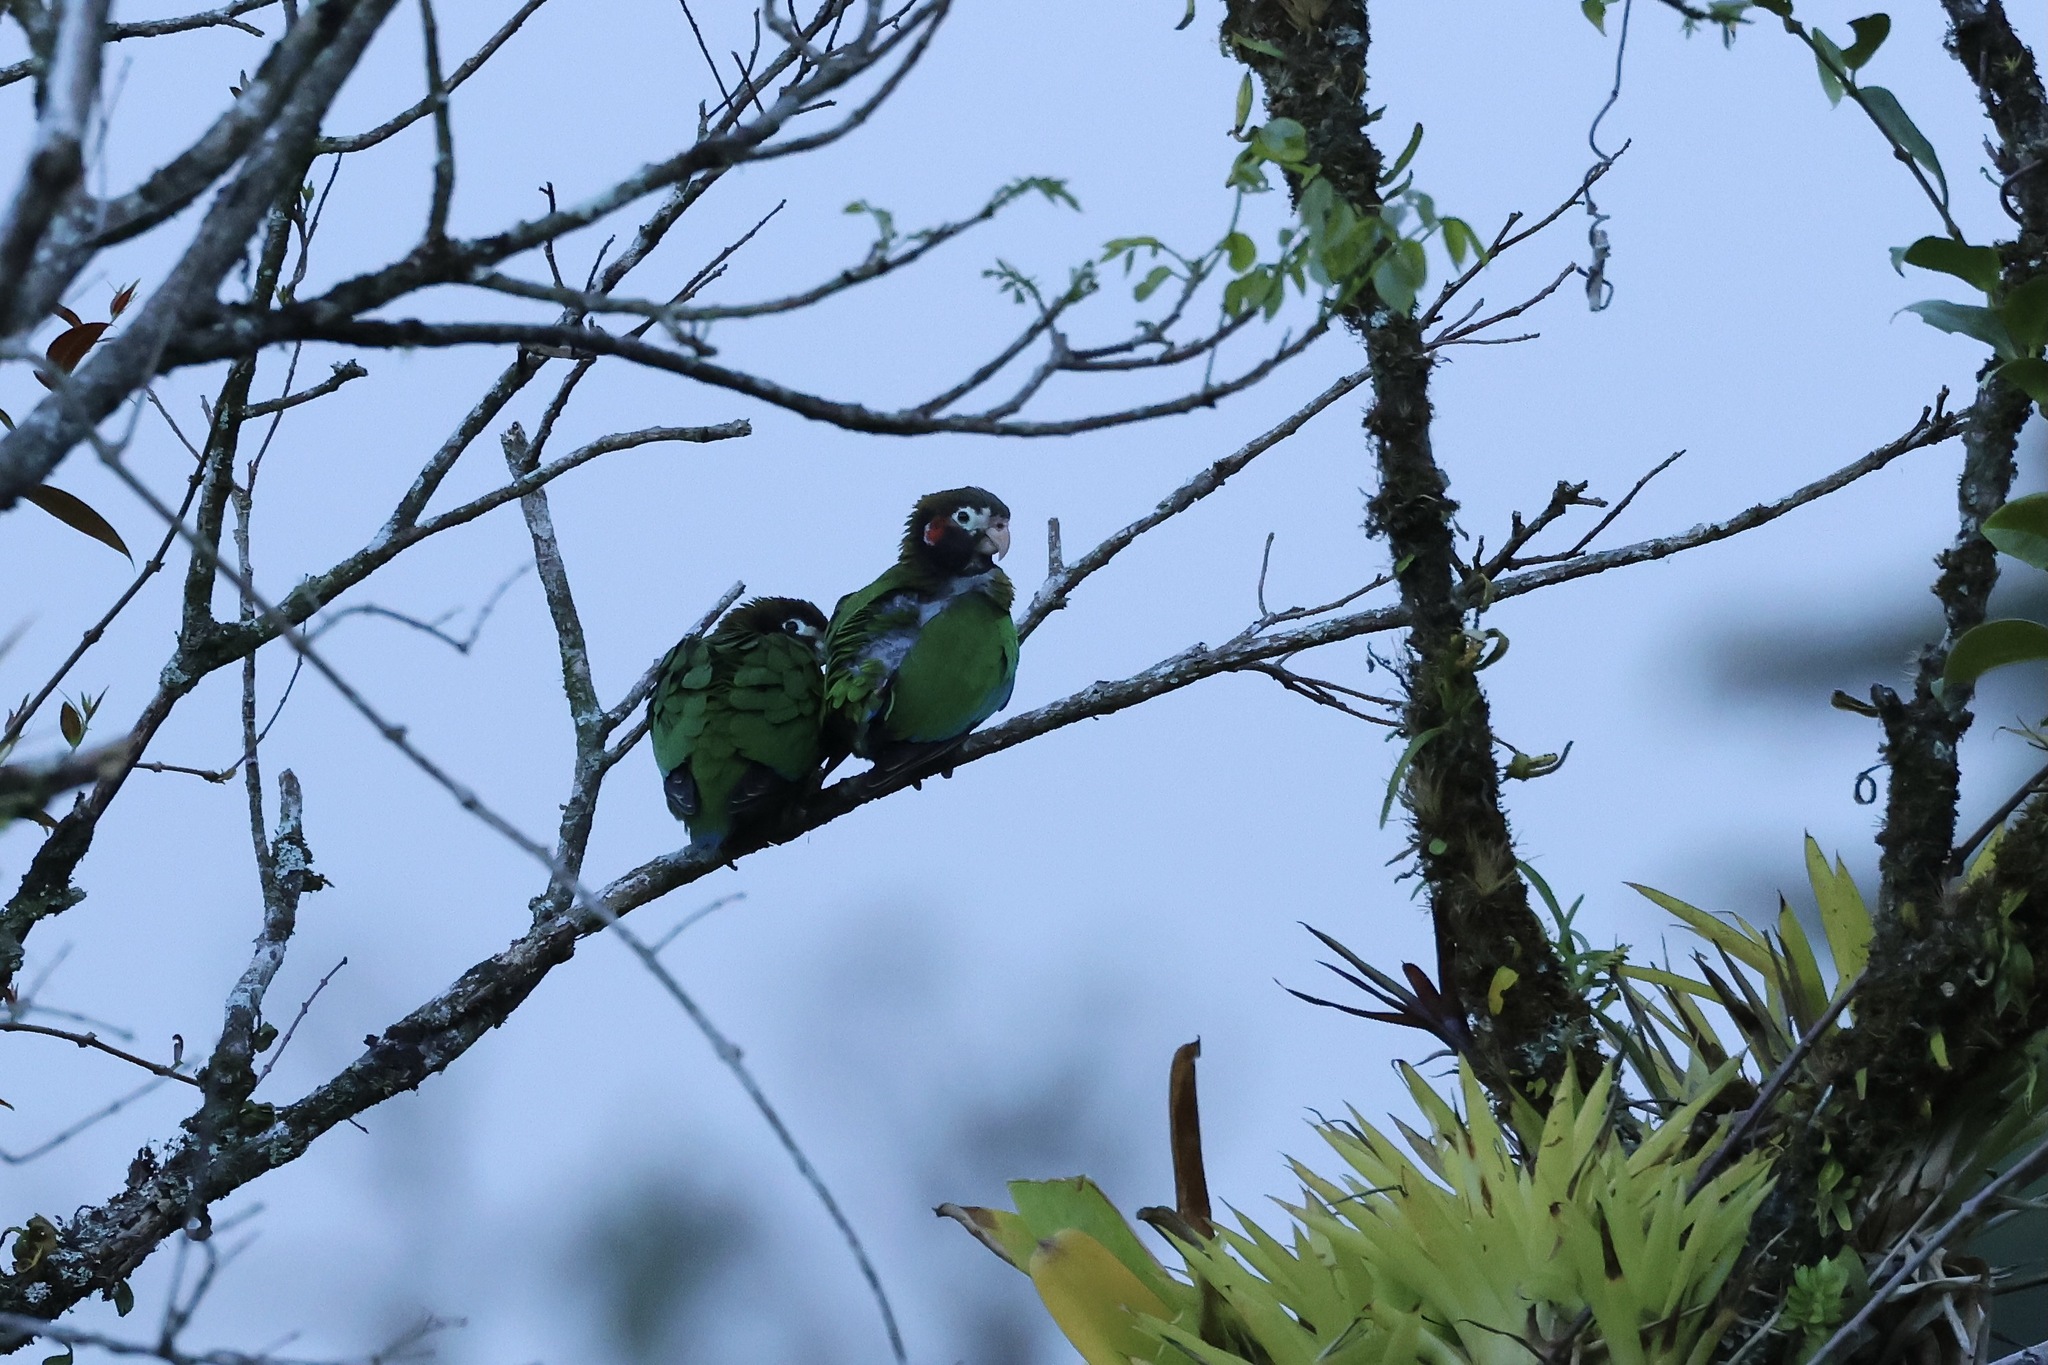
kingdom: Animalia
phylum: Chordata
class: Aves
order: Psittaciformes
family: Psittacidae
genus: Pionopsitta
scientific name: Pionopsitta haematotis
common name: Brown-hooded parrot
